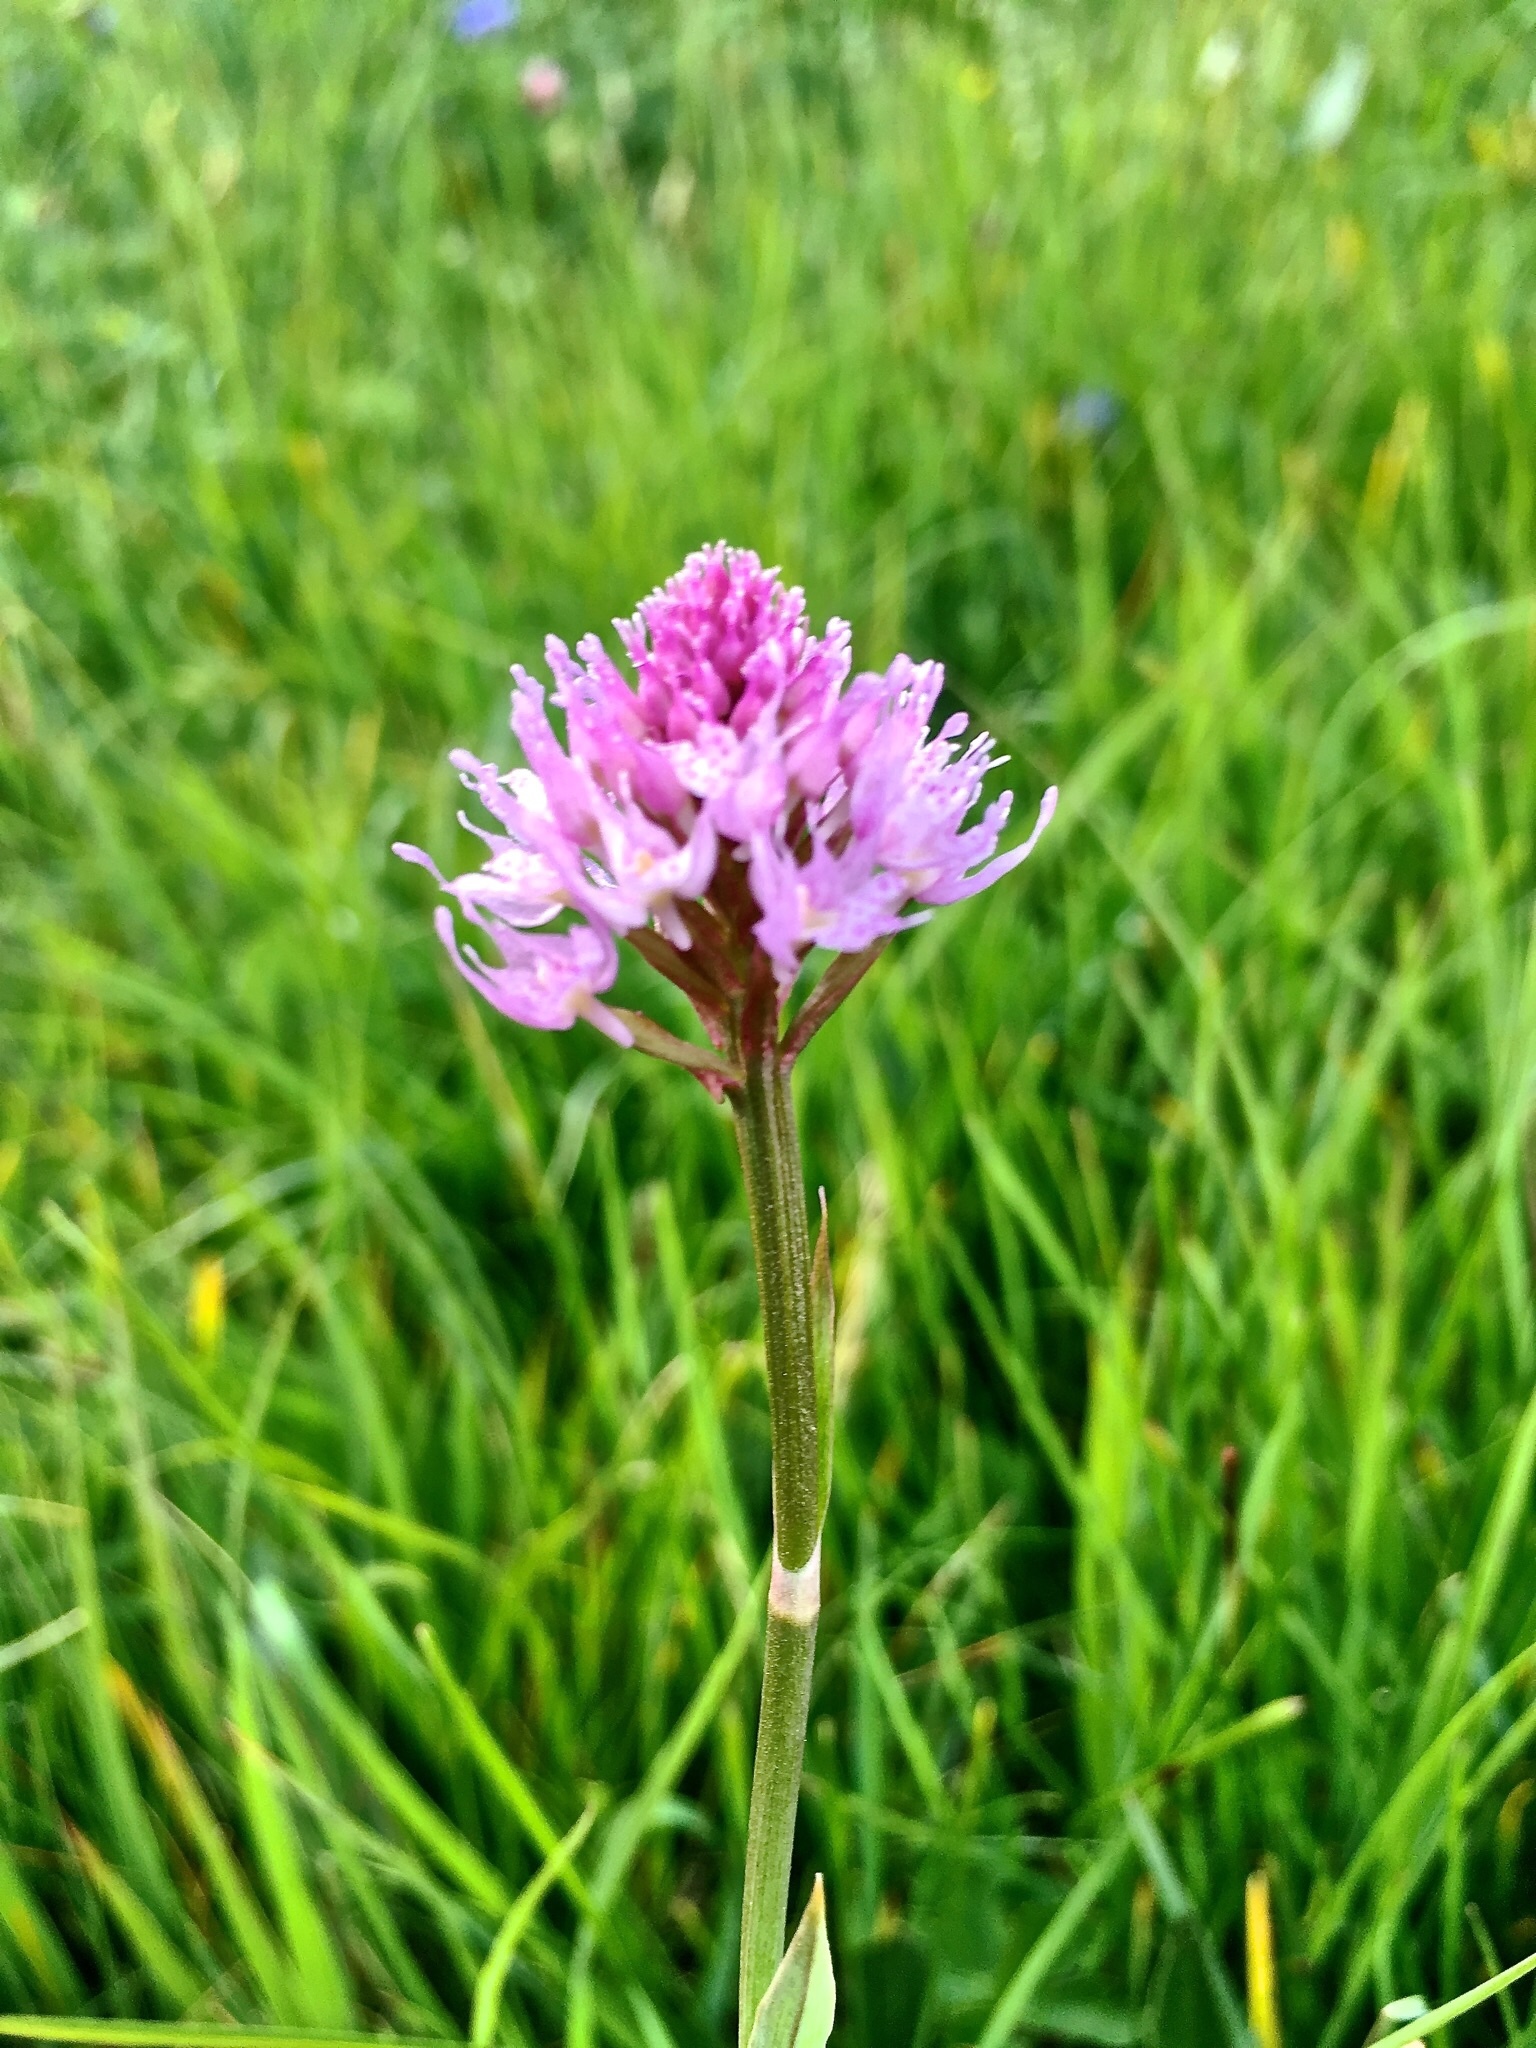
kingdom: Plantae
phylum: Tracheophyta
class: Liliopsida
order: Asparagales
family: Orchidaceae
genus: Traunsteinera
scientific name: Traunsteinera globosa
